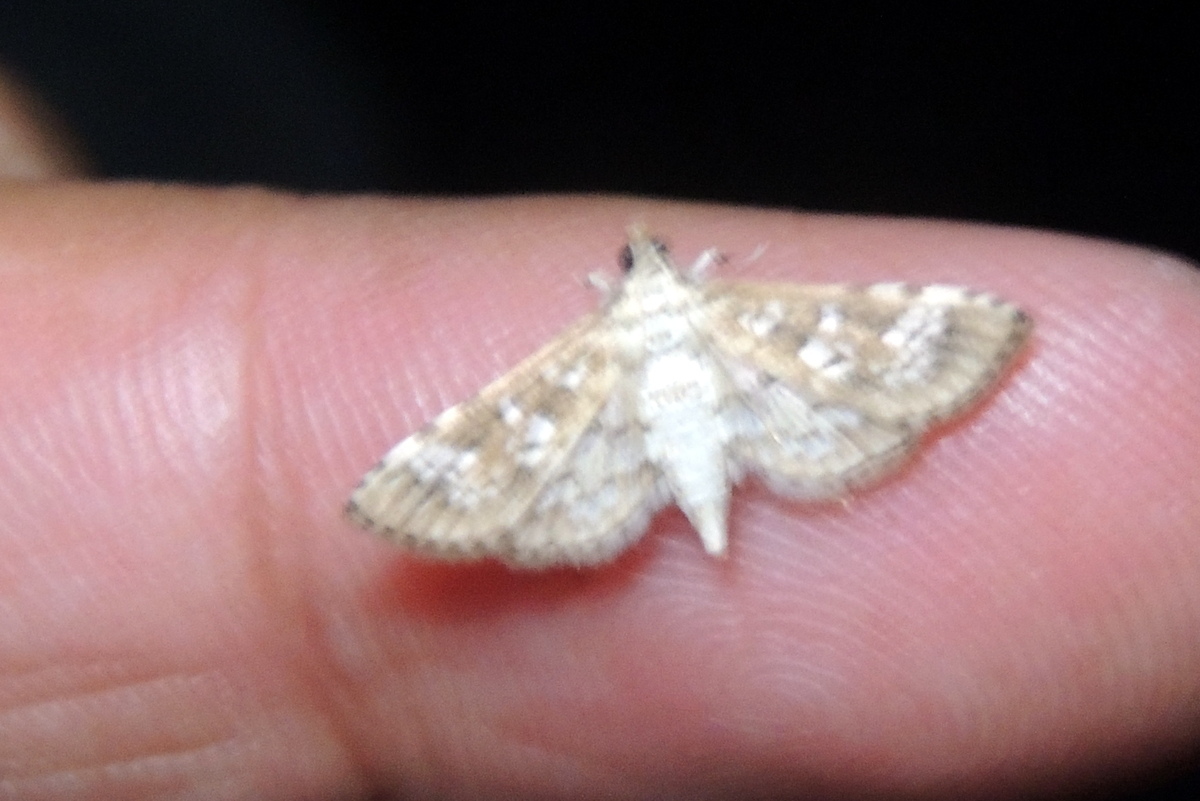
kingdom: Animalia
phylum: Arthropoda
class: Insecta
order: Lepidoptera
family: Crambidae
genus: Samea
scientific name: Samea multiplicalis
